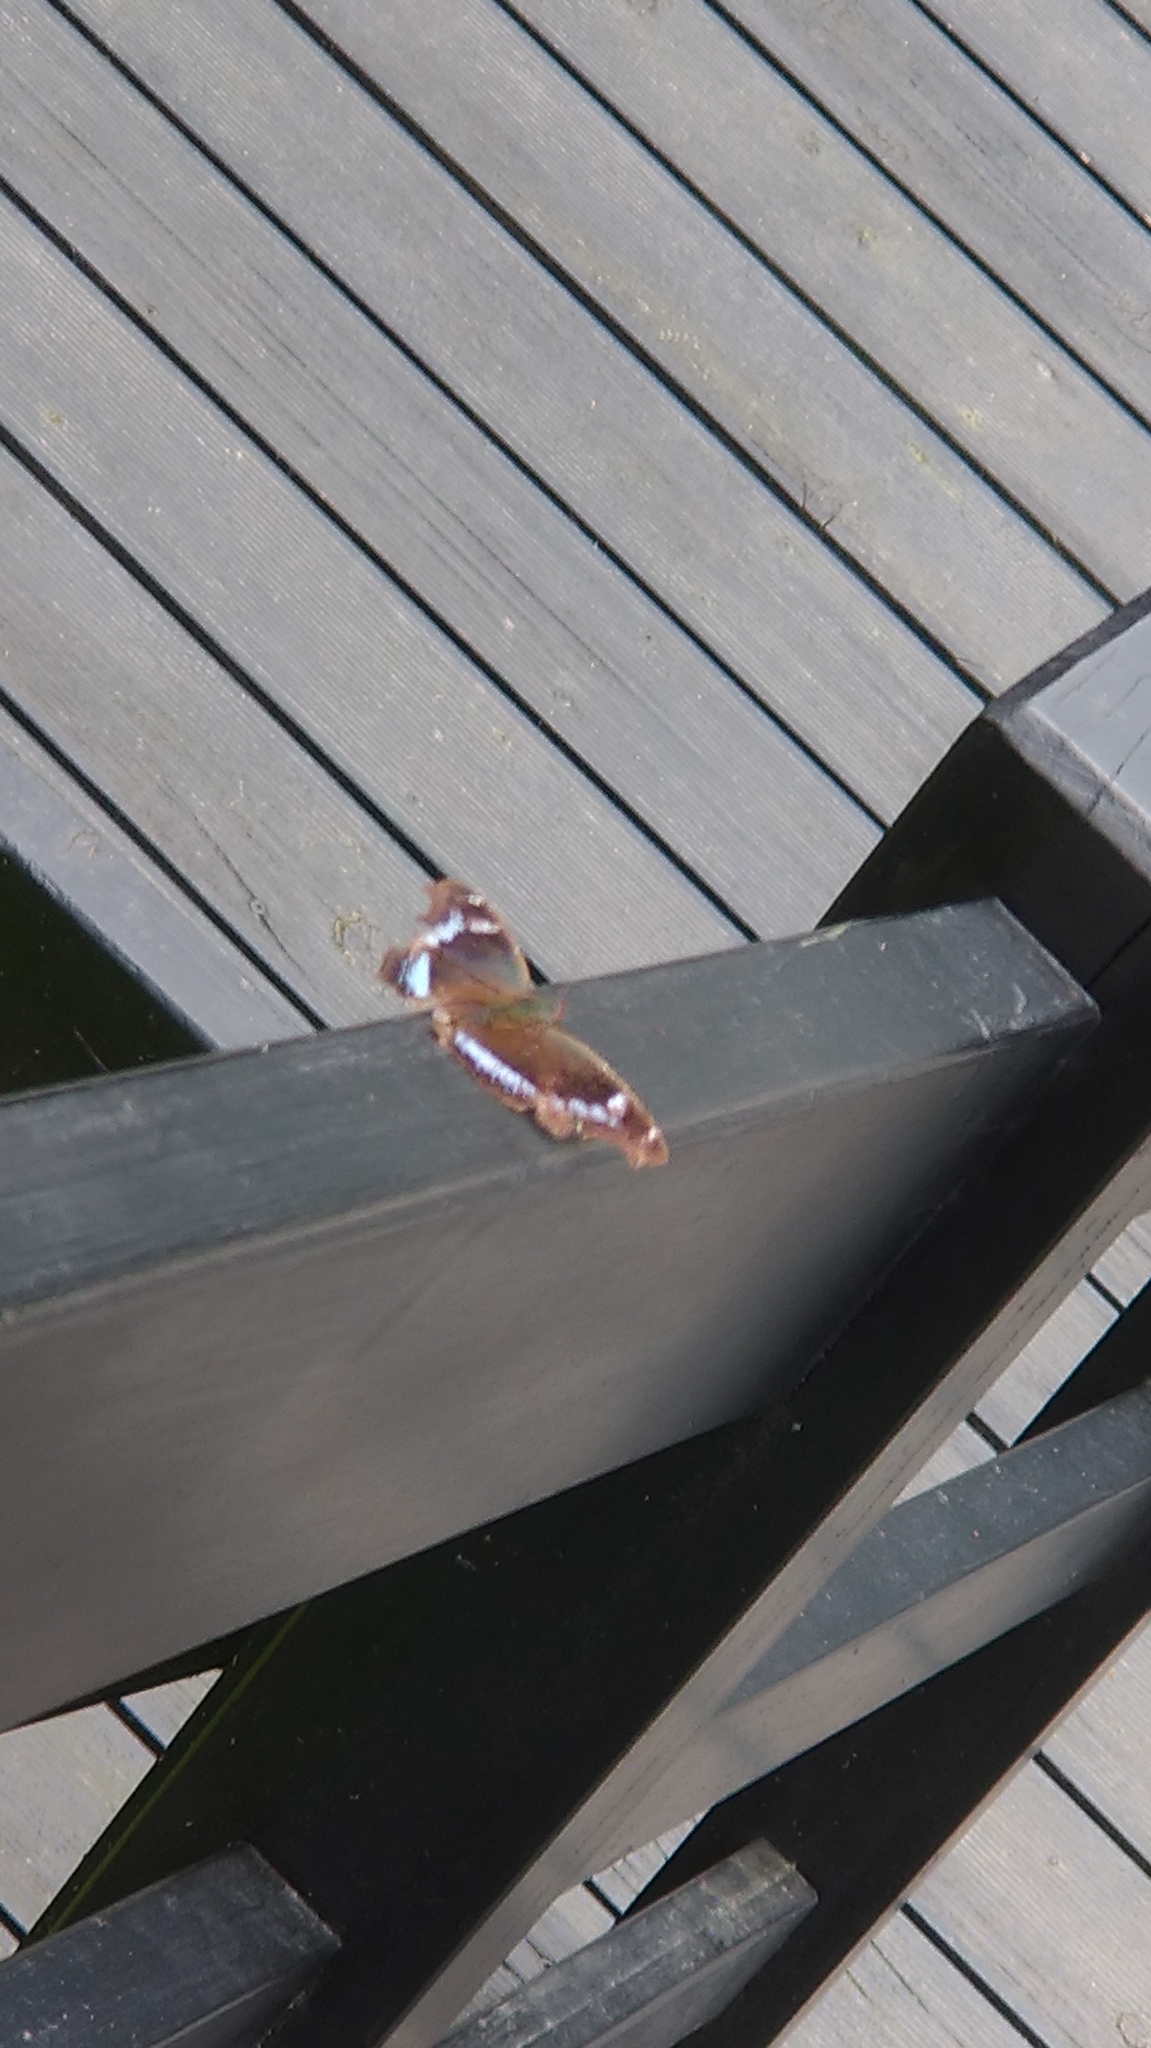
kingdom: Animalia
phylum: Arthropoda
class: Insecta
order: Lepidoptera
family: Nymphalidae
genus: Vanessa
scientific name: Vanessa Kaniska canace
